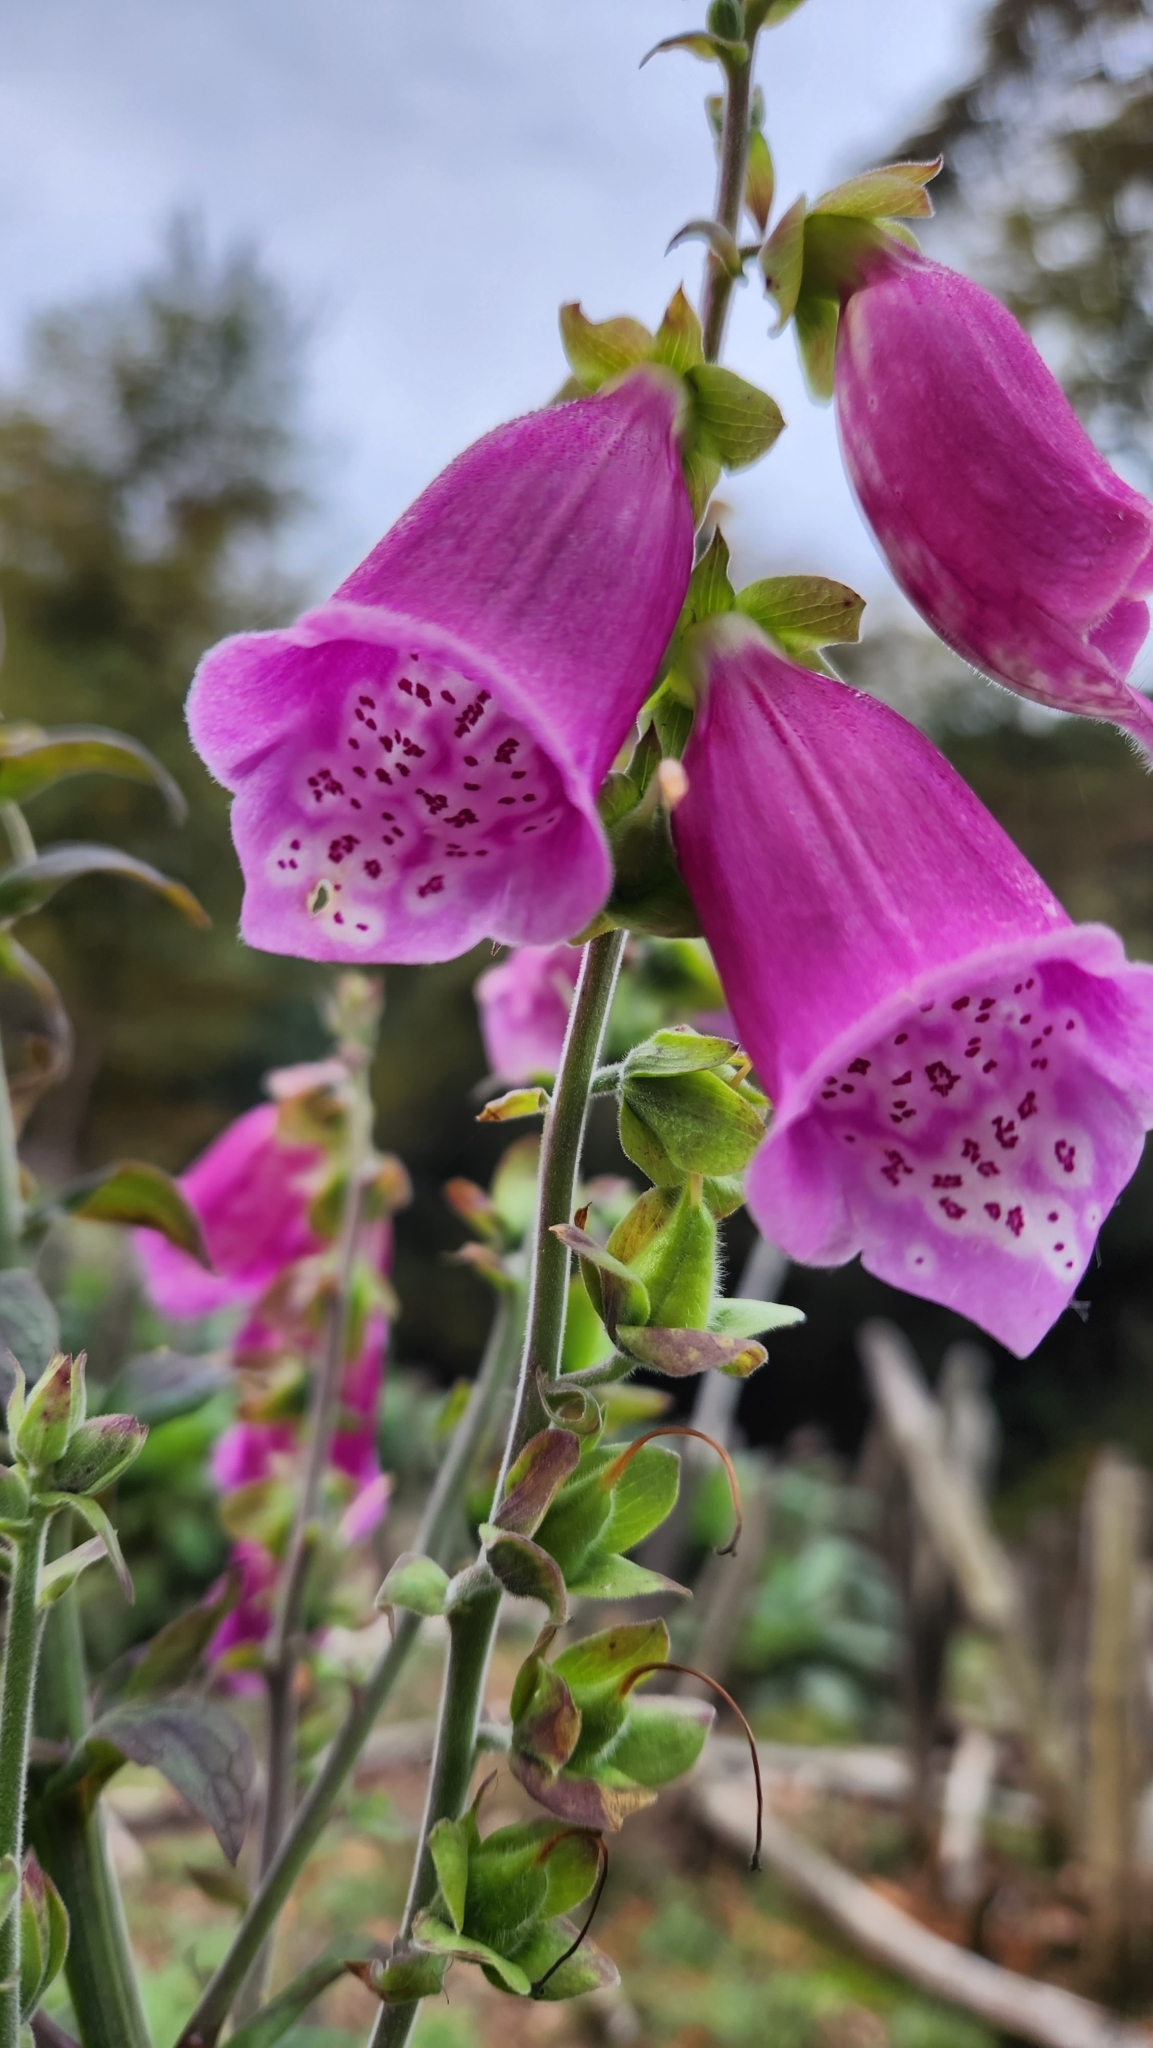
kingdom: Plantae
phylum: Tracheophyta
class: Magnoliopsida
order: Lamiales
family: Plantaginaceae
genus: Digitalis
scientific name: Digitalis purpurea
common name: Foxglove
